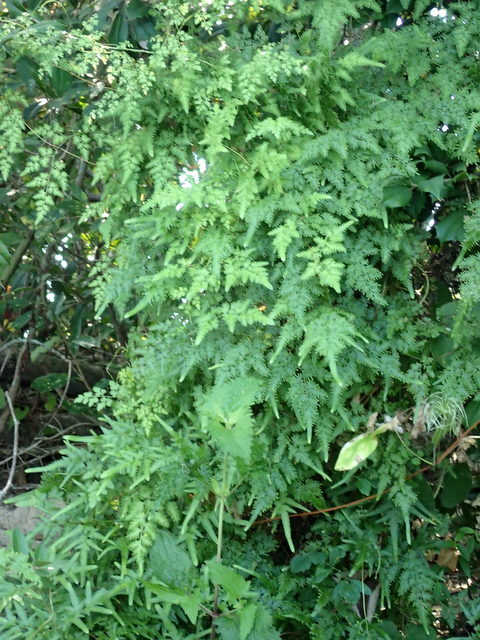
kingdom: Plantae
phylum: Tracheophyta
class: Polypodiopsida
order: Schizaeales
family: Lygodiaceae
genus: Lygodium
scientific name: Lygodium japonicum
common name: Japanese climbing fern
